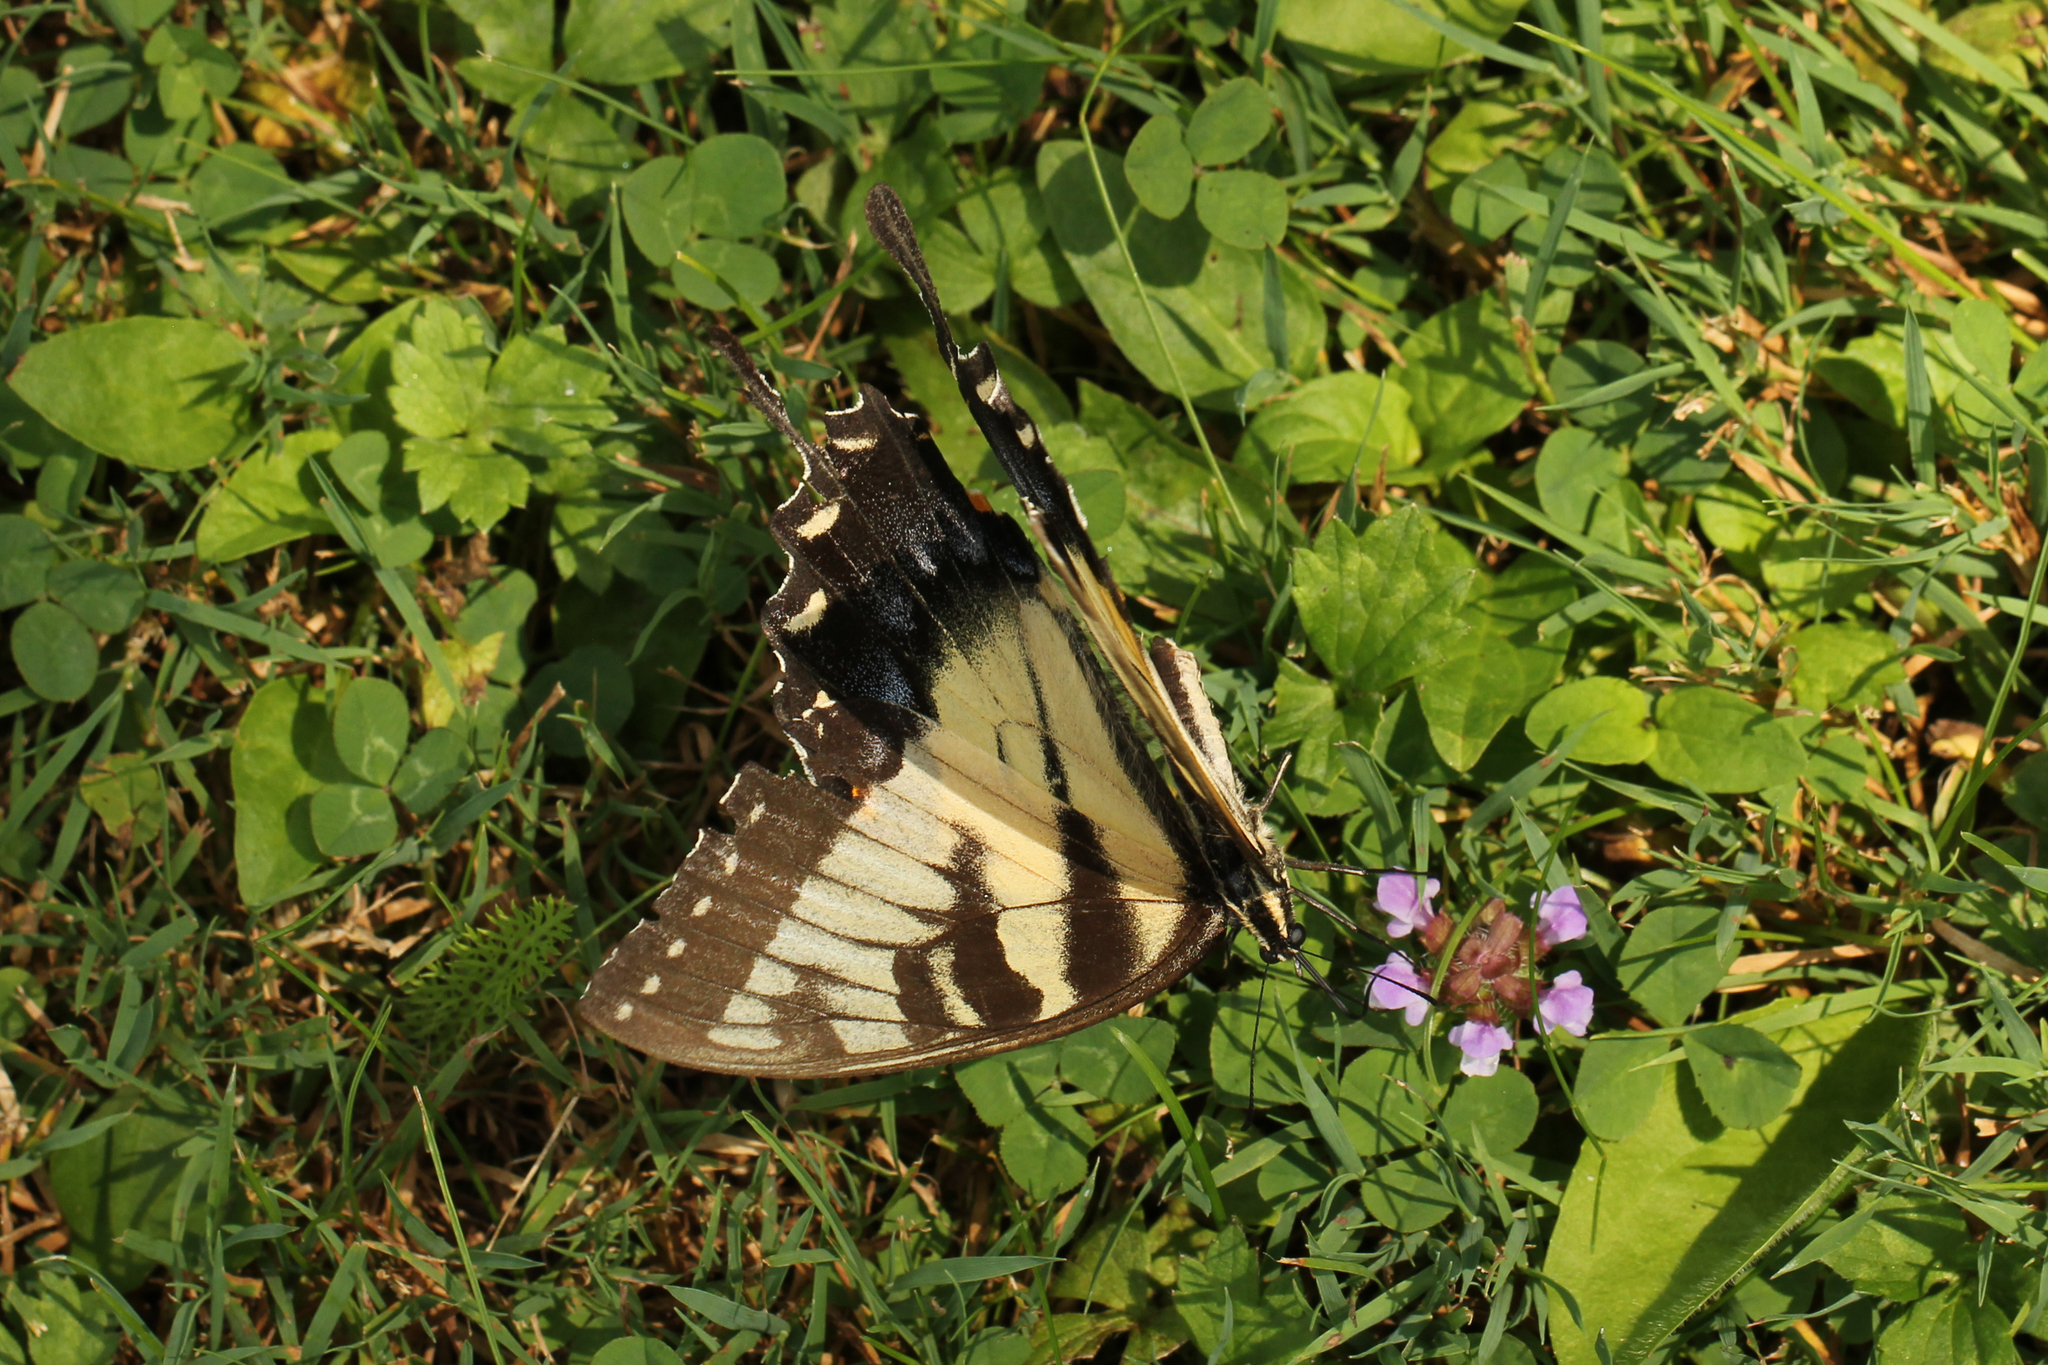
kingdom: Animalia
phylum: Arthropoda
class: Insecta
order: Lepidoptera
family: Papilionidae
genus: Papilio
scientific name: Papilio glaucus
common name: Tiger swallowtail
